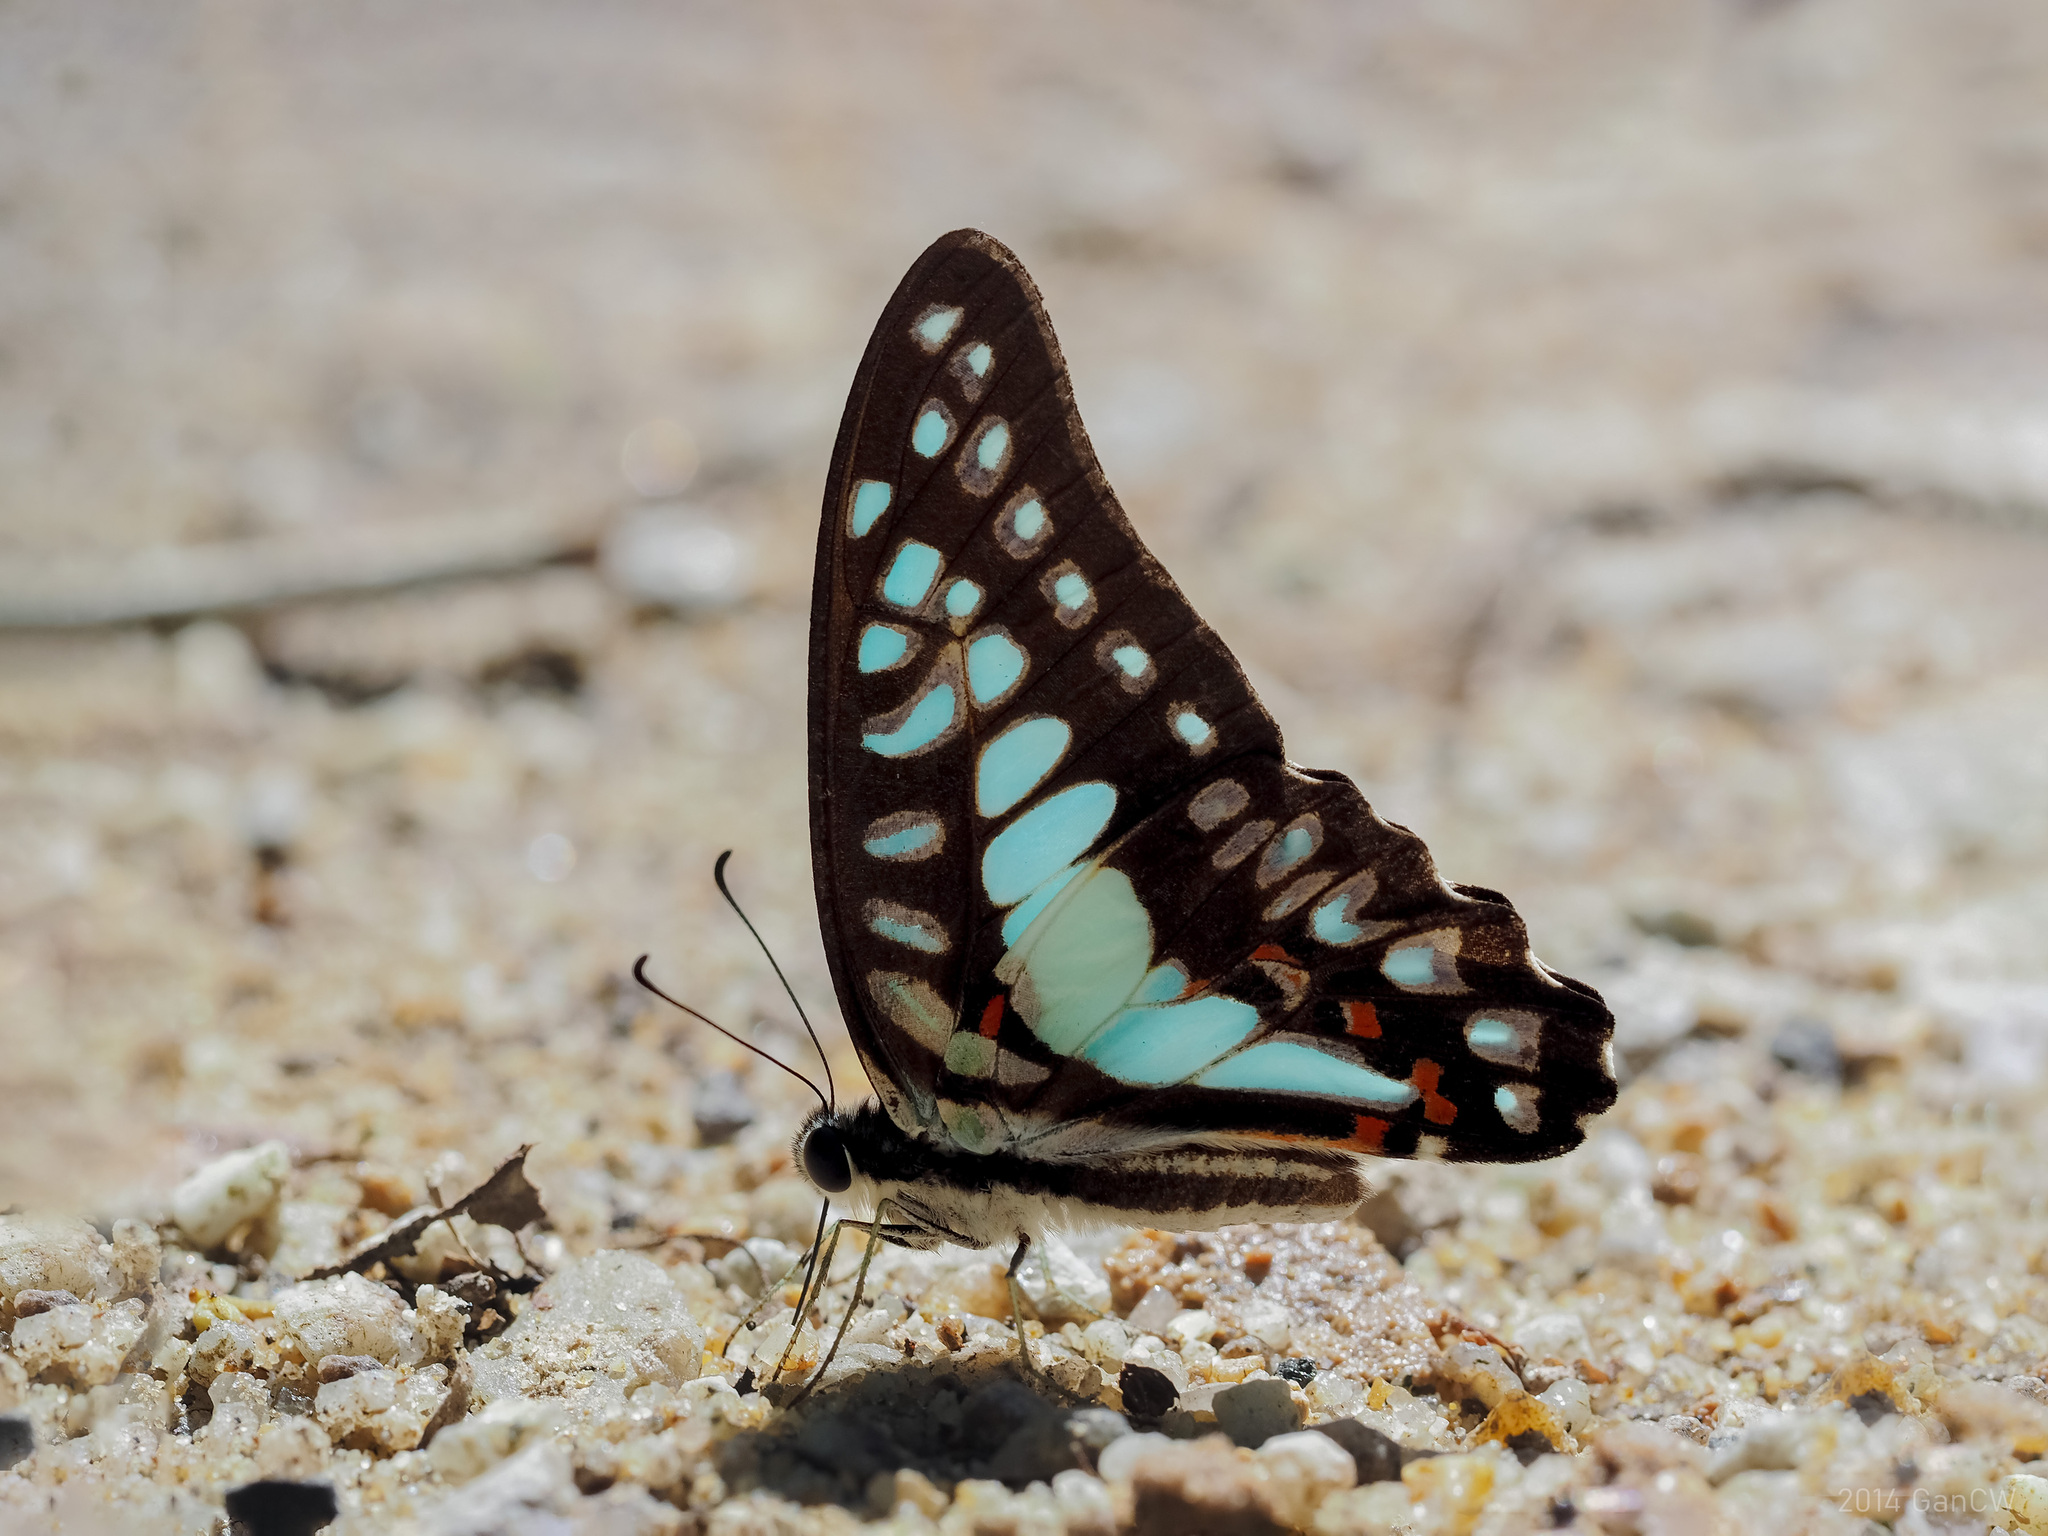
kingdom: Animalia
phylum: Arthropoda
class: Insecta
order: Lepidoptera
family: Papilionidae
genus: Graphium
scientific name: Graphium eurypylus
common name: Great jay
